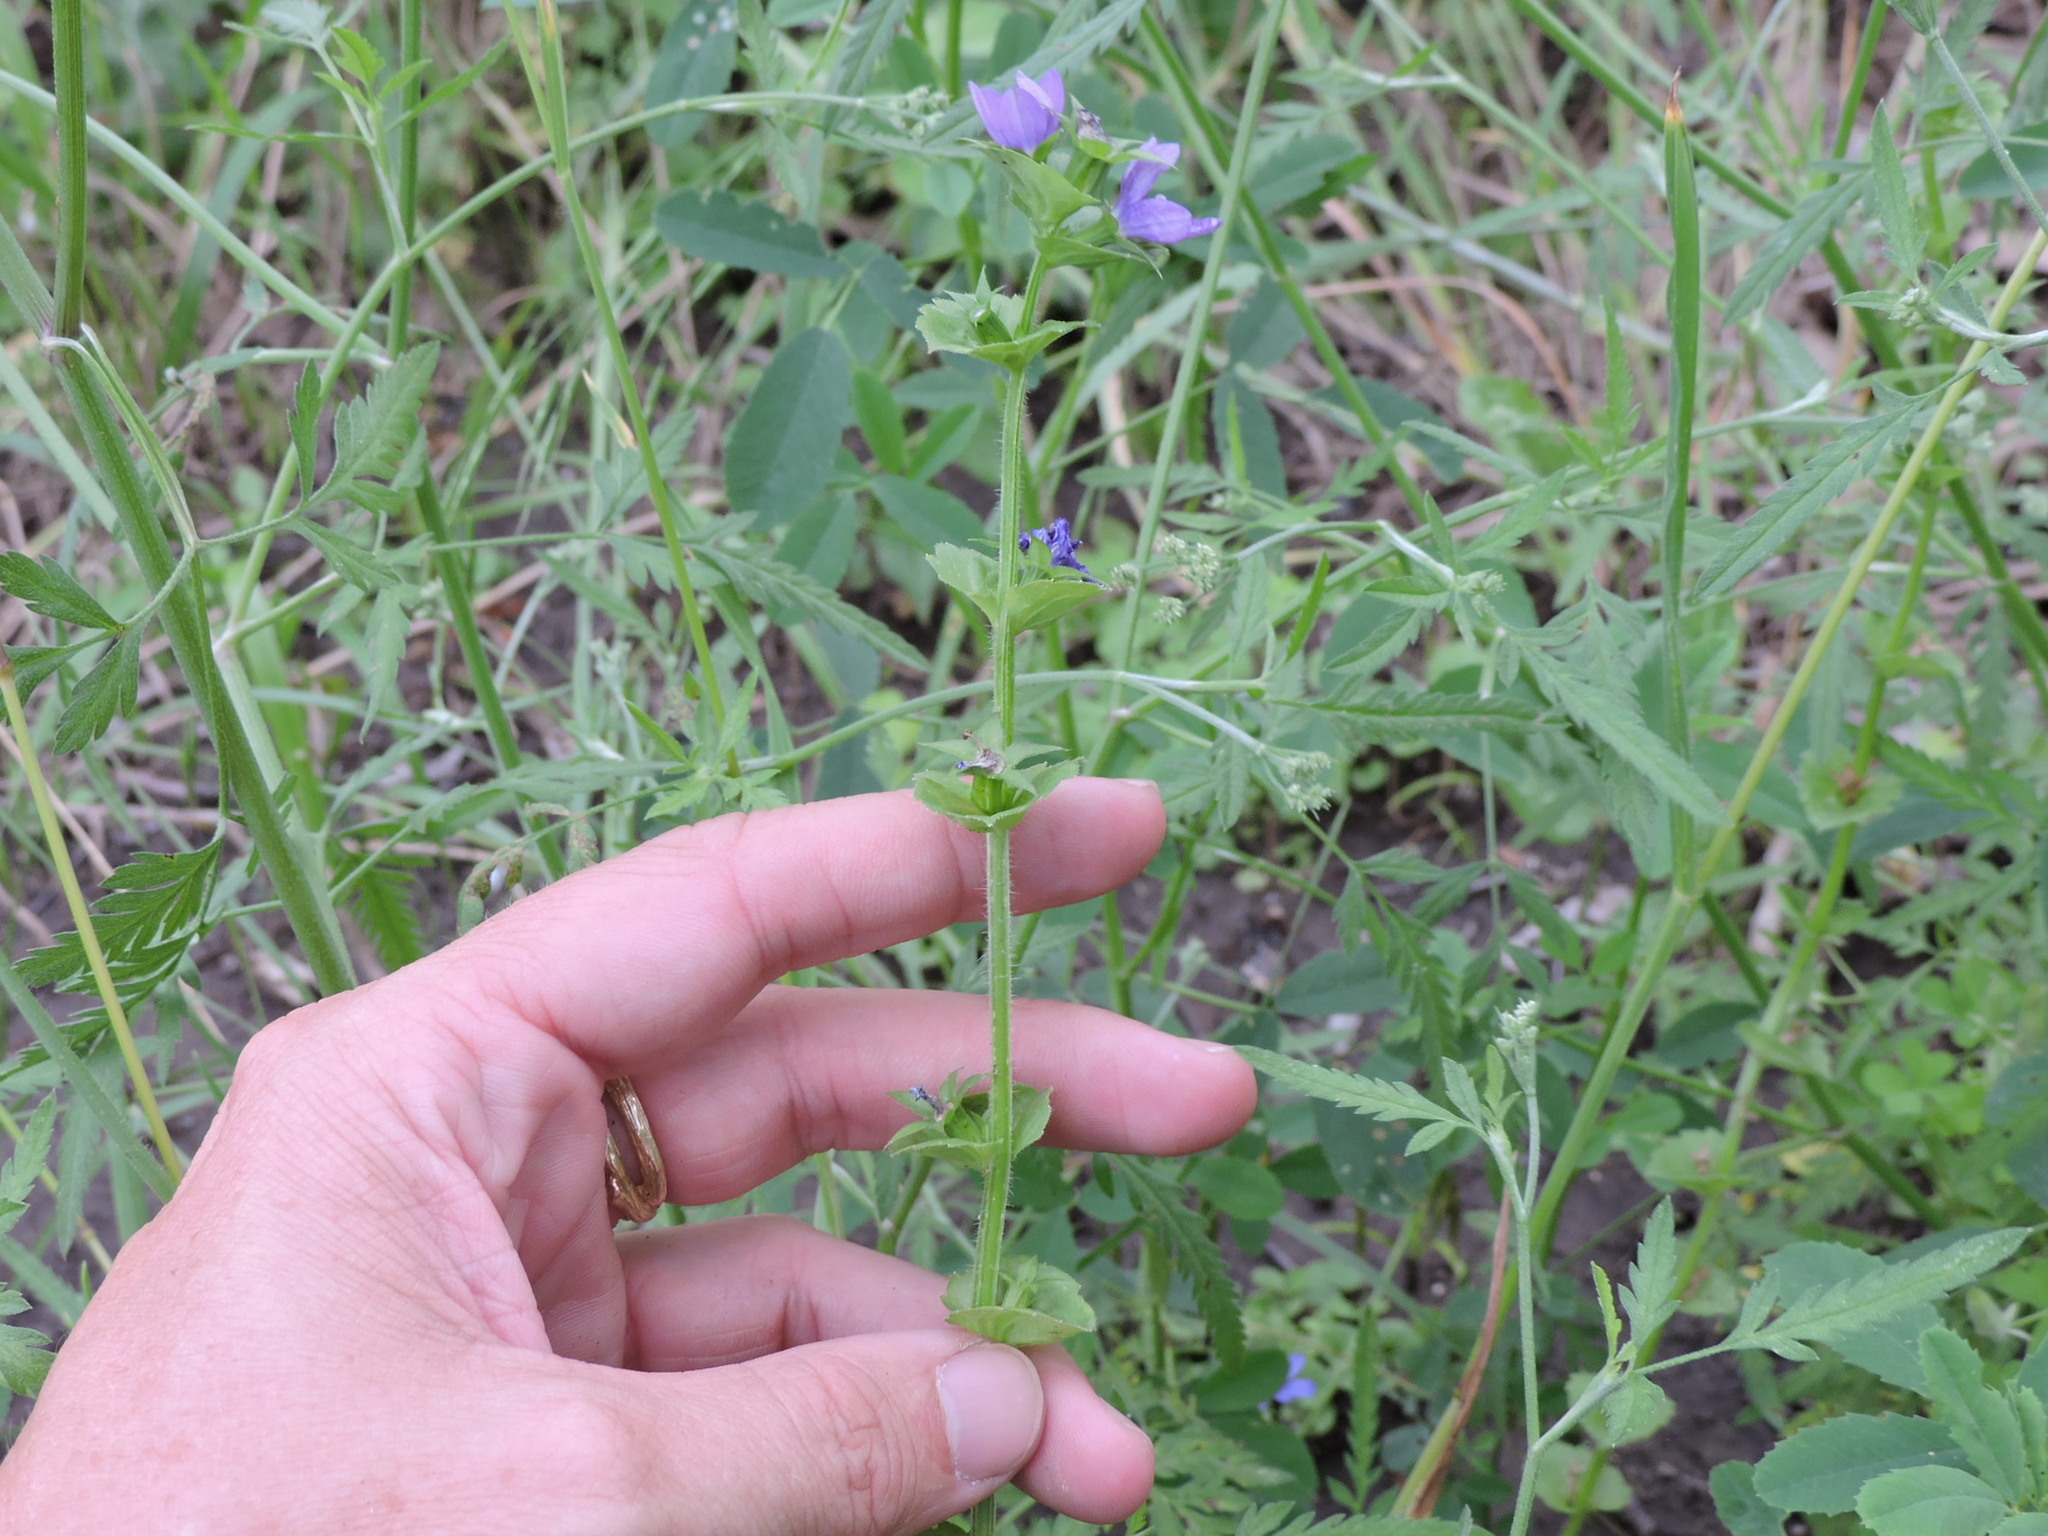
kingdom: Plantae
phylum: Tracheophyta
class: Magnoliopsida
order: Asterales
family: Campanulaceae
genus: Triodanis
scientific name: Triodanis perfoliata
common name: Clasping venus' looking-glass
